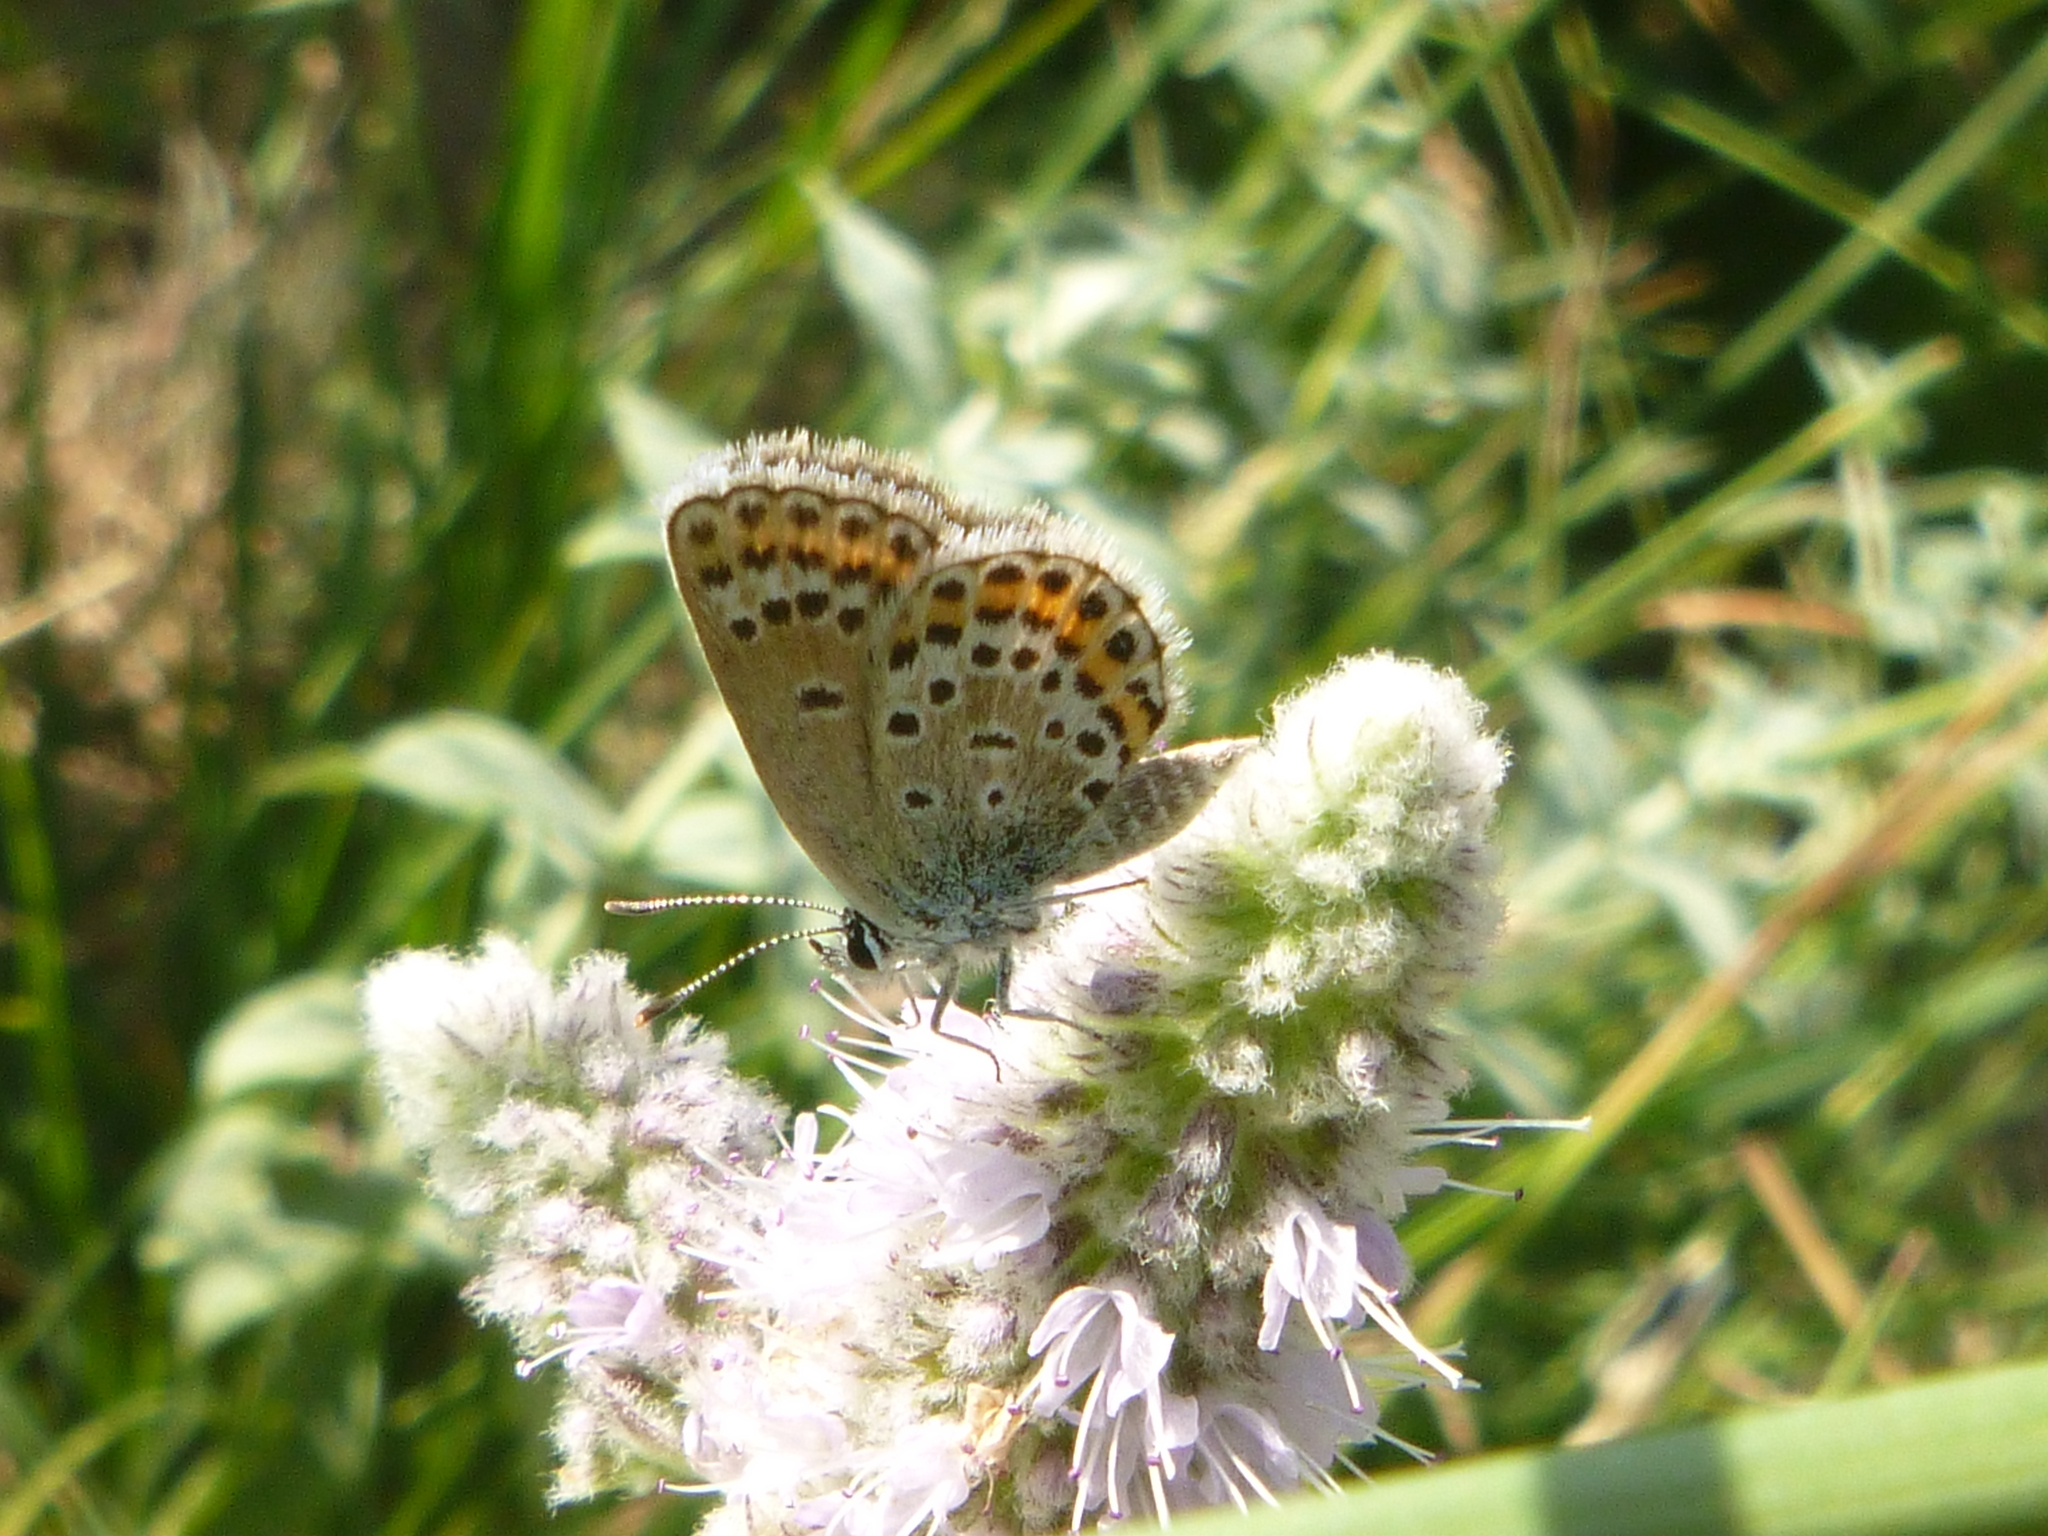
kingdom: Animalia
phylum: Arthropoda
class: Insecta
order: Lepidoptera
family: Lycaenidae
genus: Plebejus
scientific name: Plebejus argus
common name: Silver-studded blue
